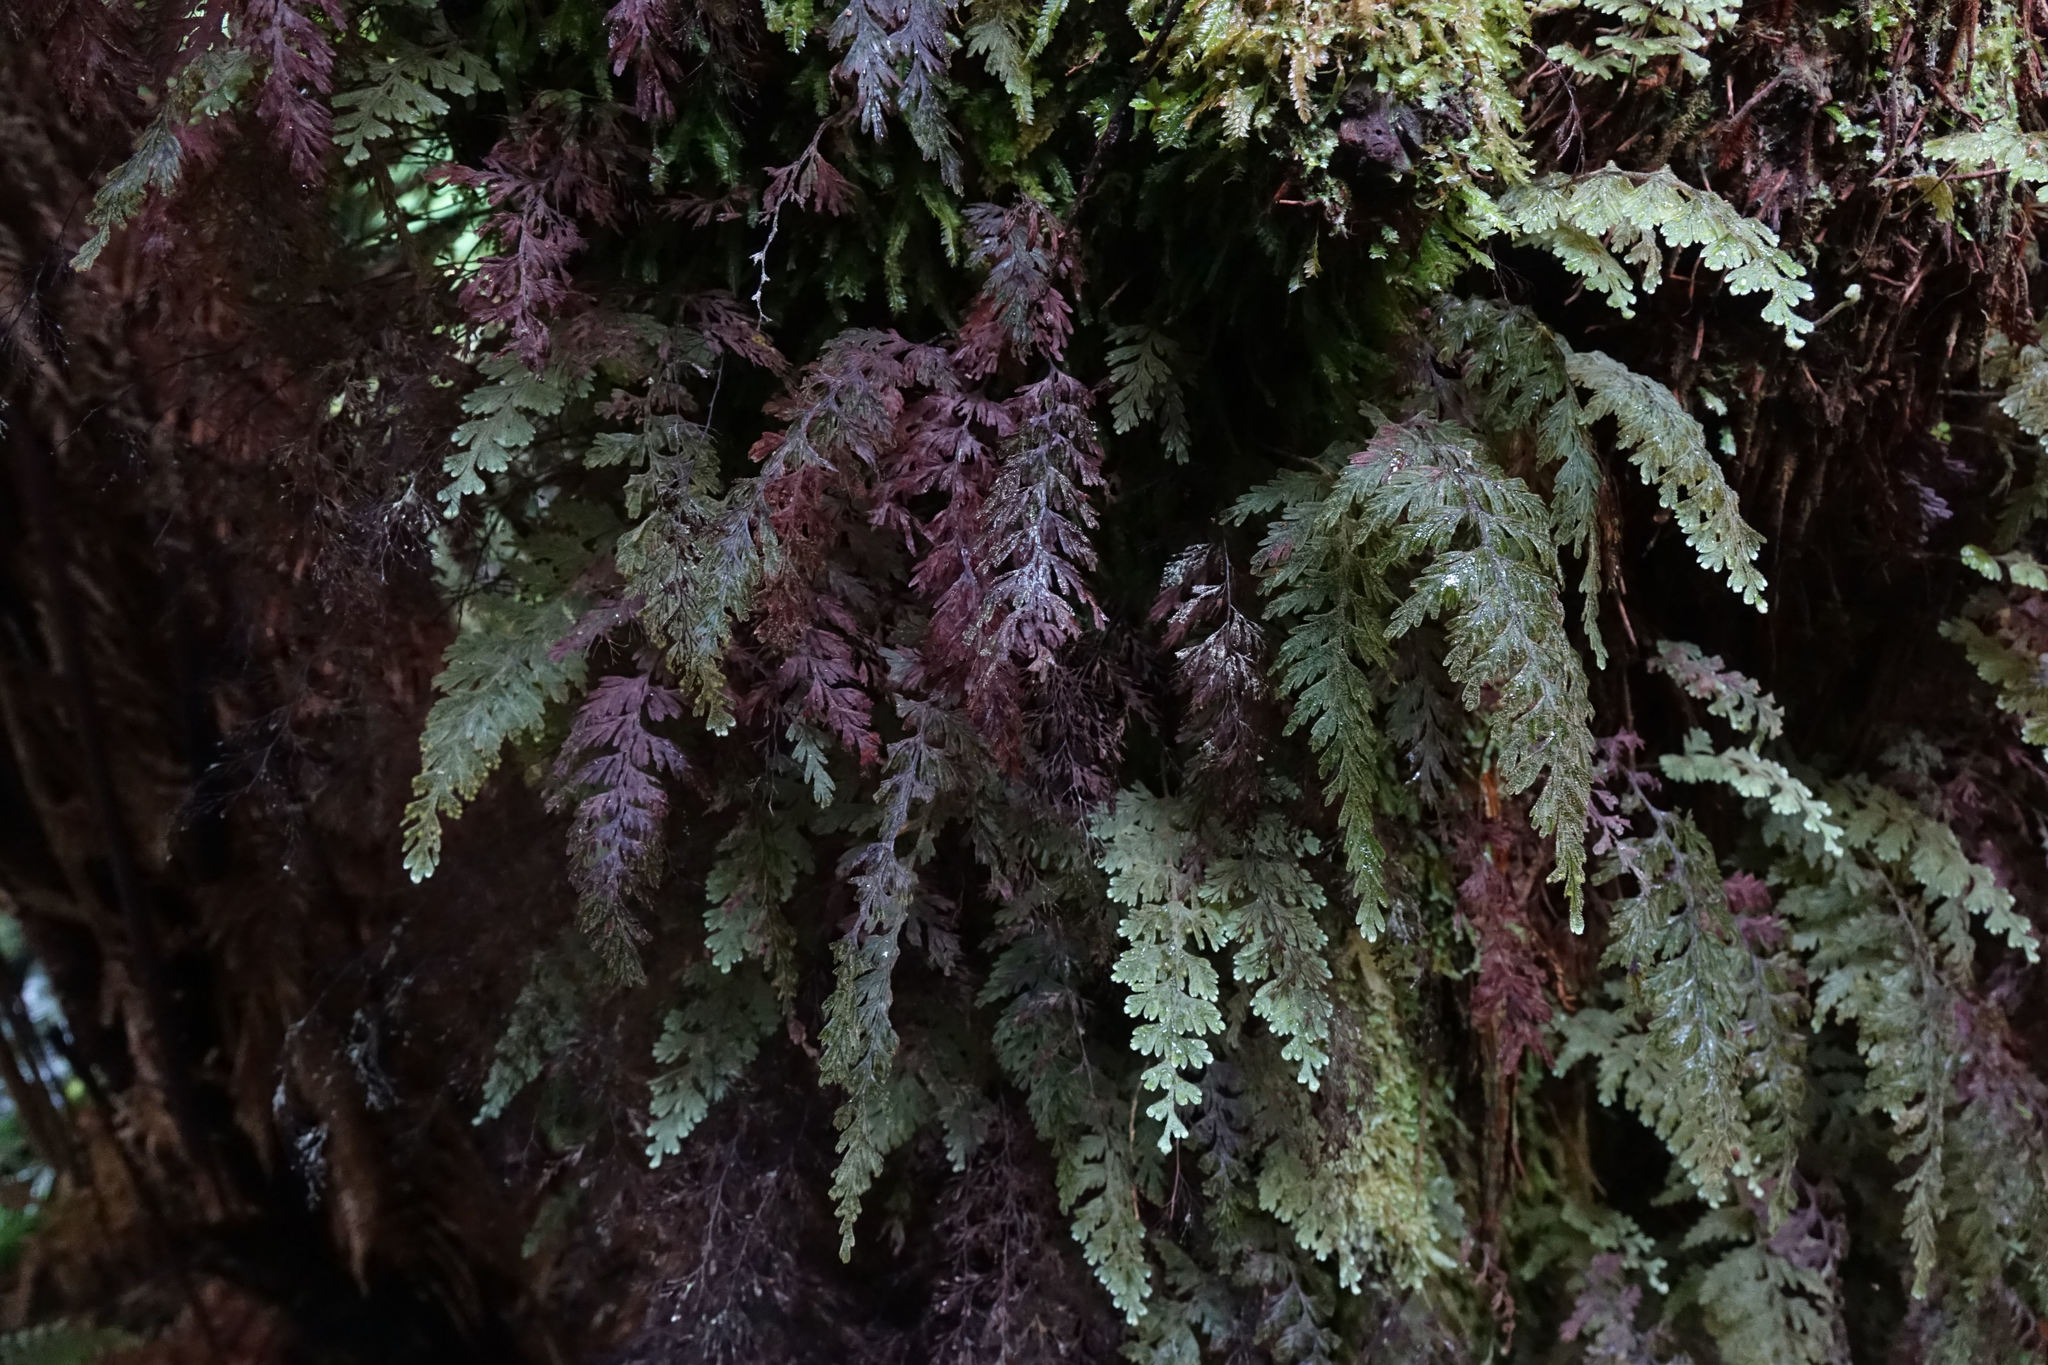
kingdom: Plantae
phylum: Tracheophyta
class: Polypodiopsida
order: Hymenophyllales
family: Hymenophyllaceae
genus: Hymenophyllum
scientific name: Hymenophyllum frankliniae
